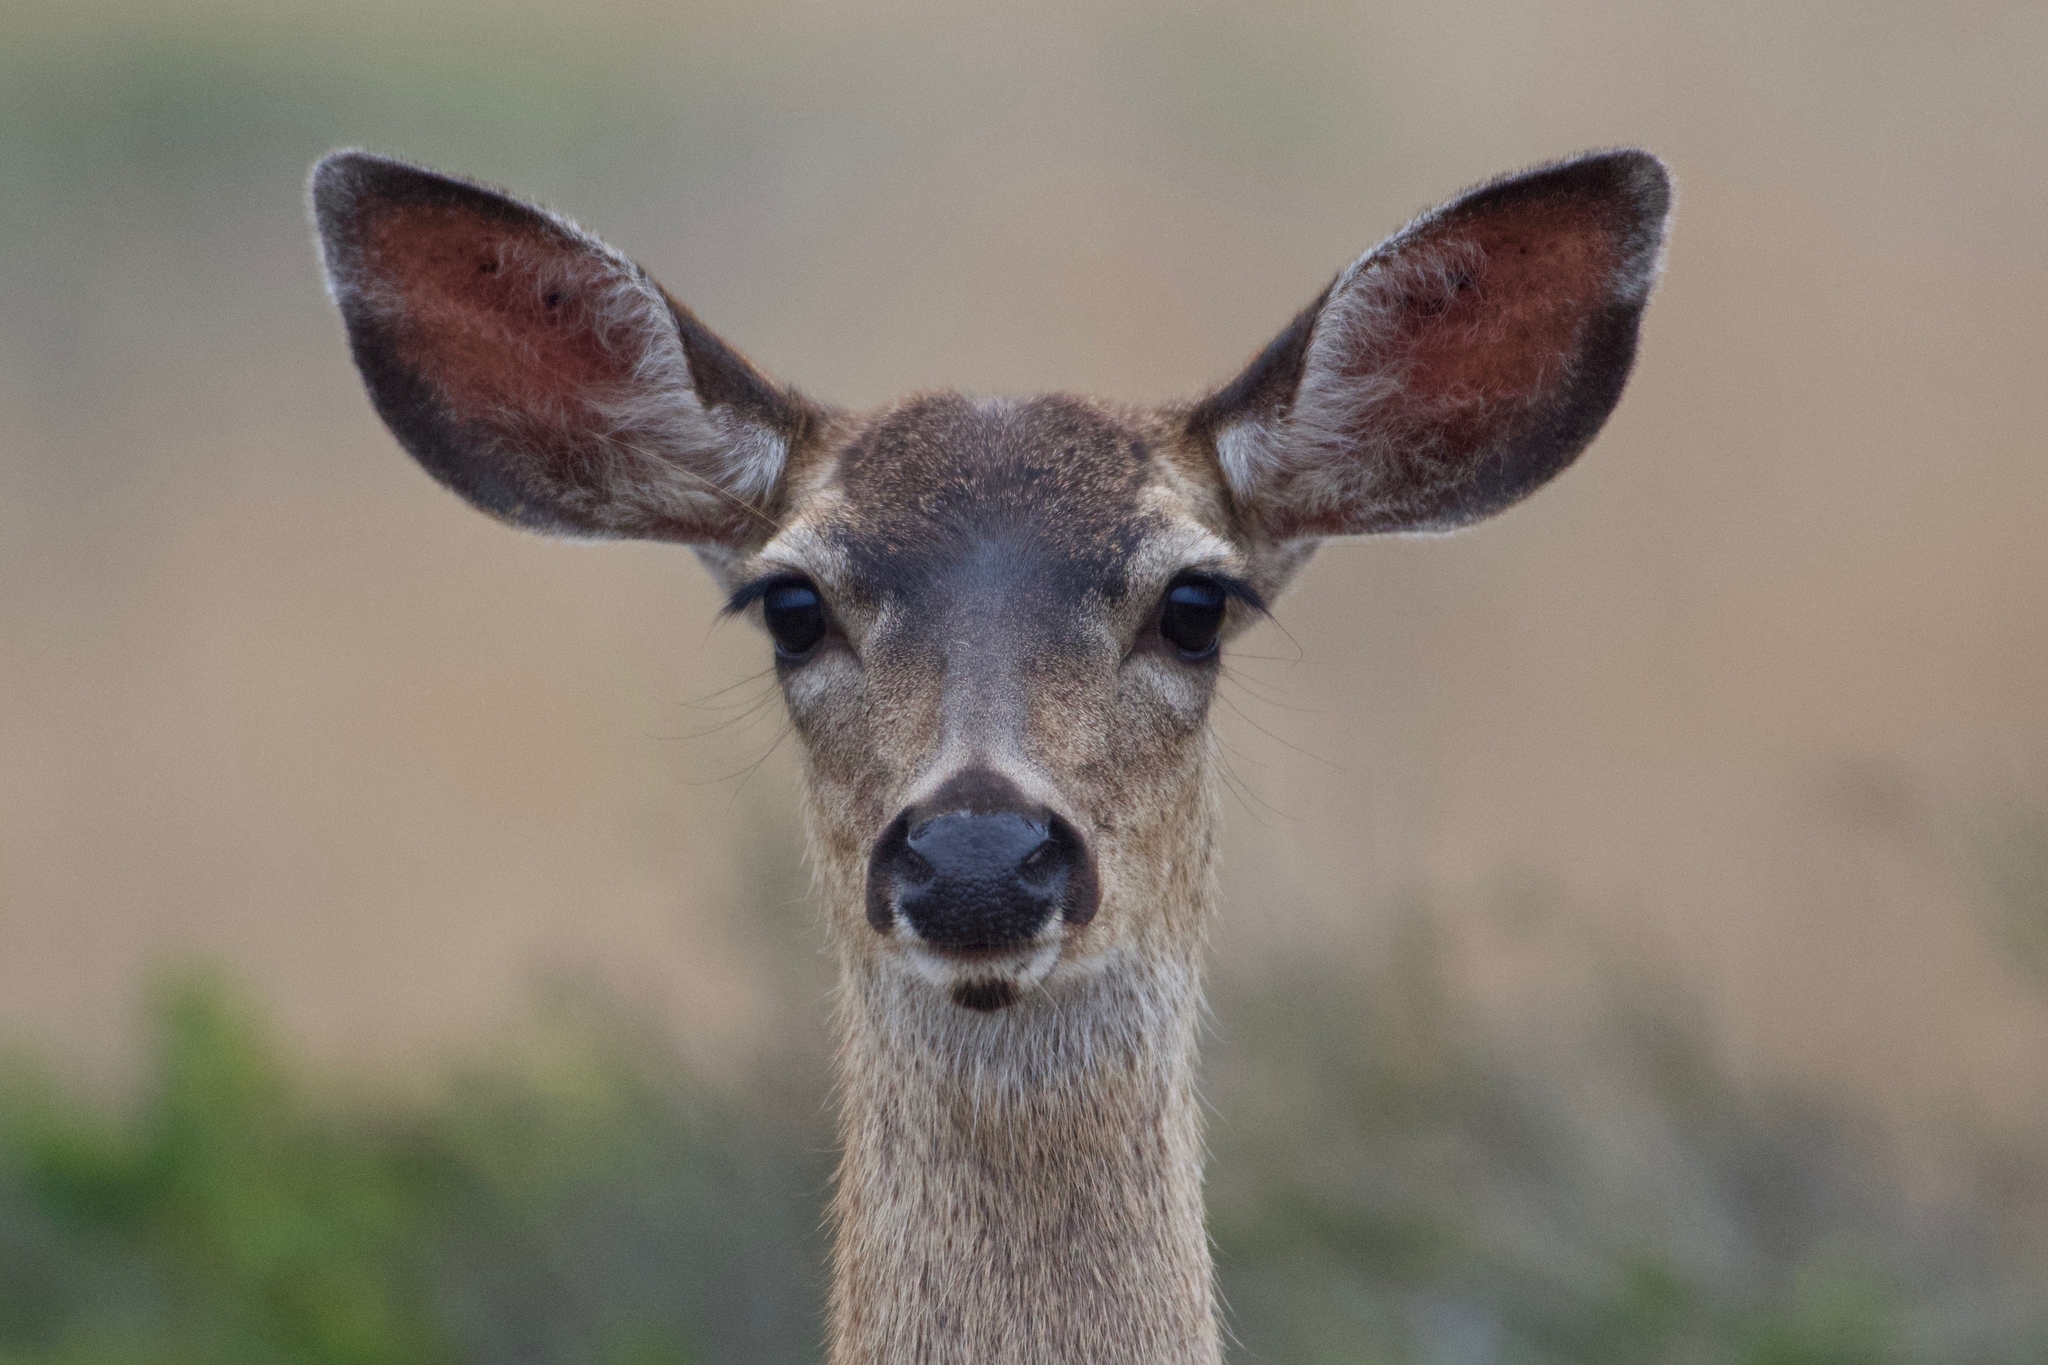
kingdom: Animalia
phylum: Chordata
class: Mammalia
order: Artiodactyla
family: Cervidae
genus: Odocoileus
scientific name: Odocoileus hemionus
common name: Mule deer
